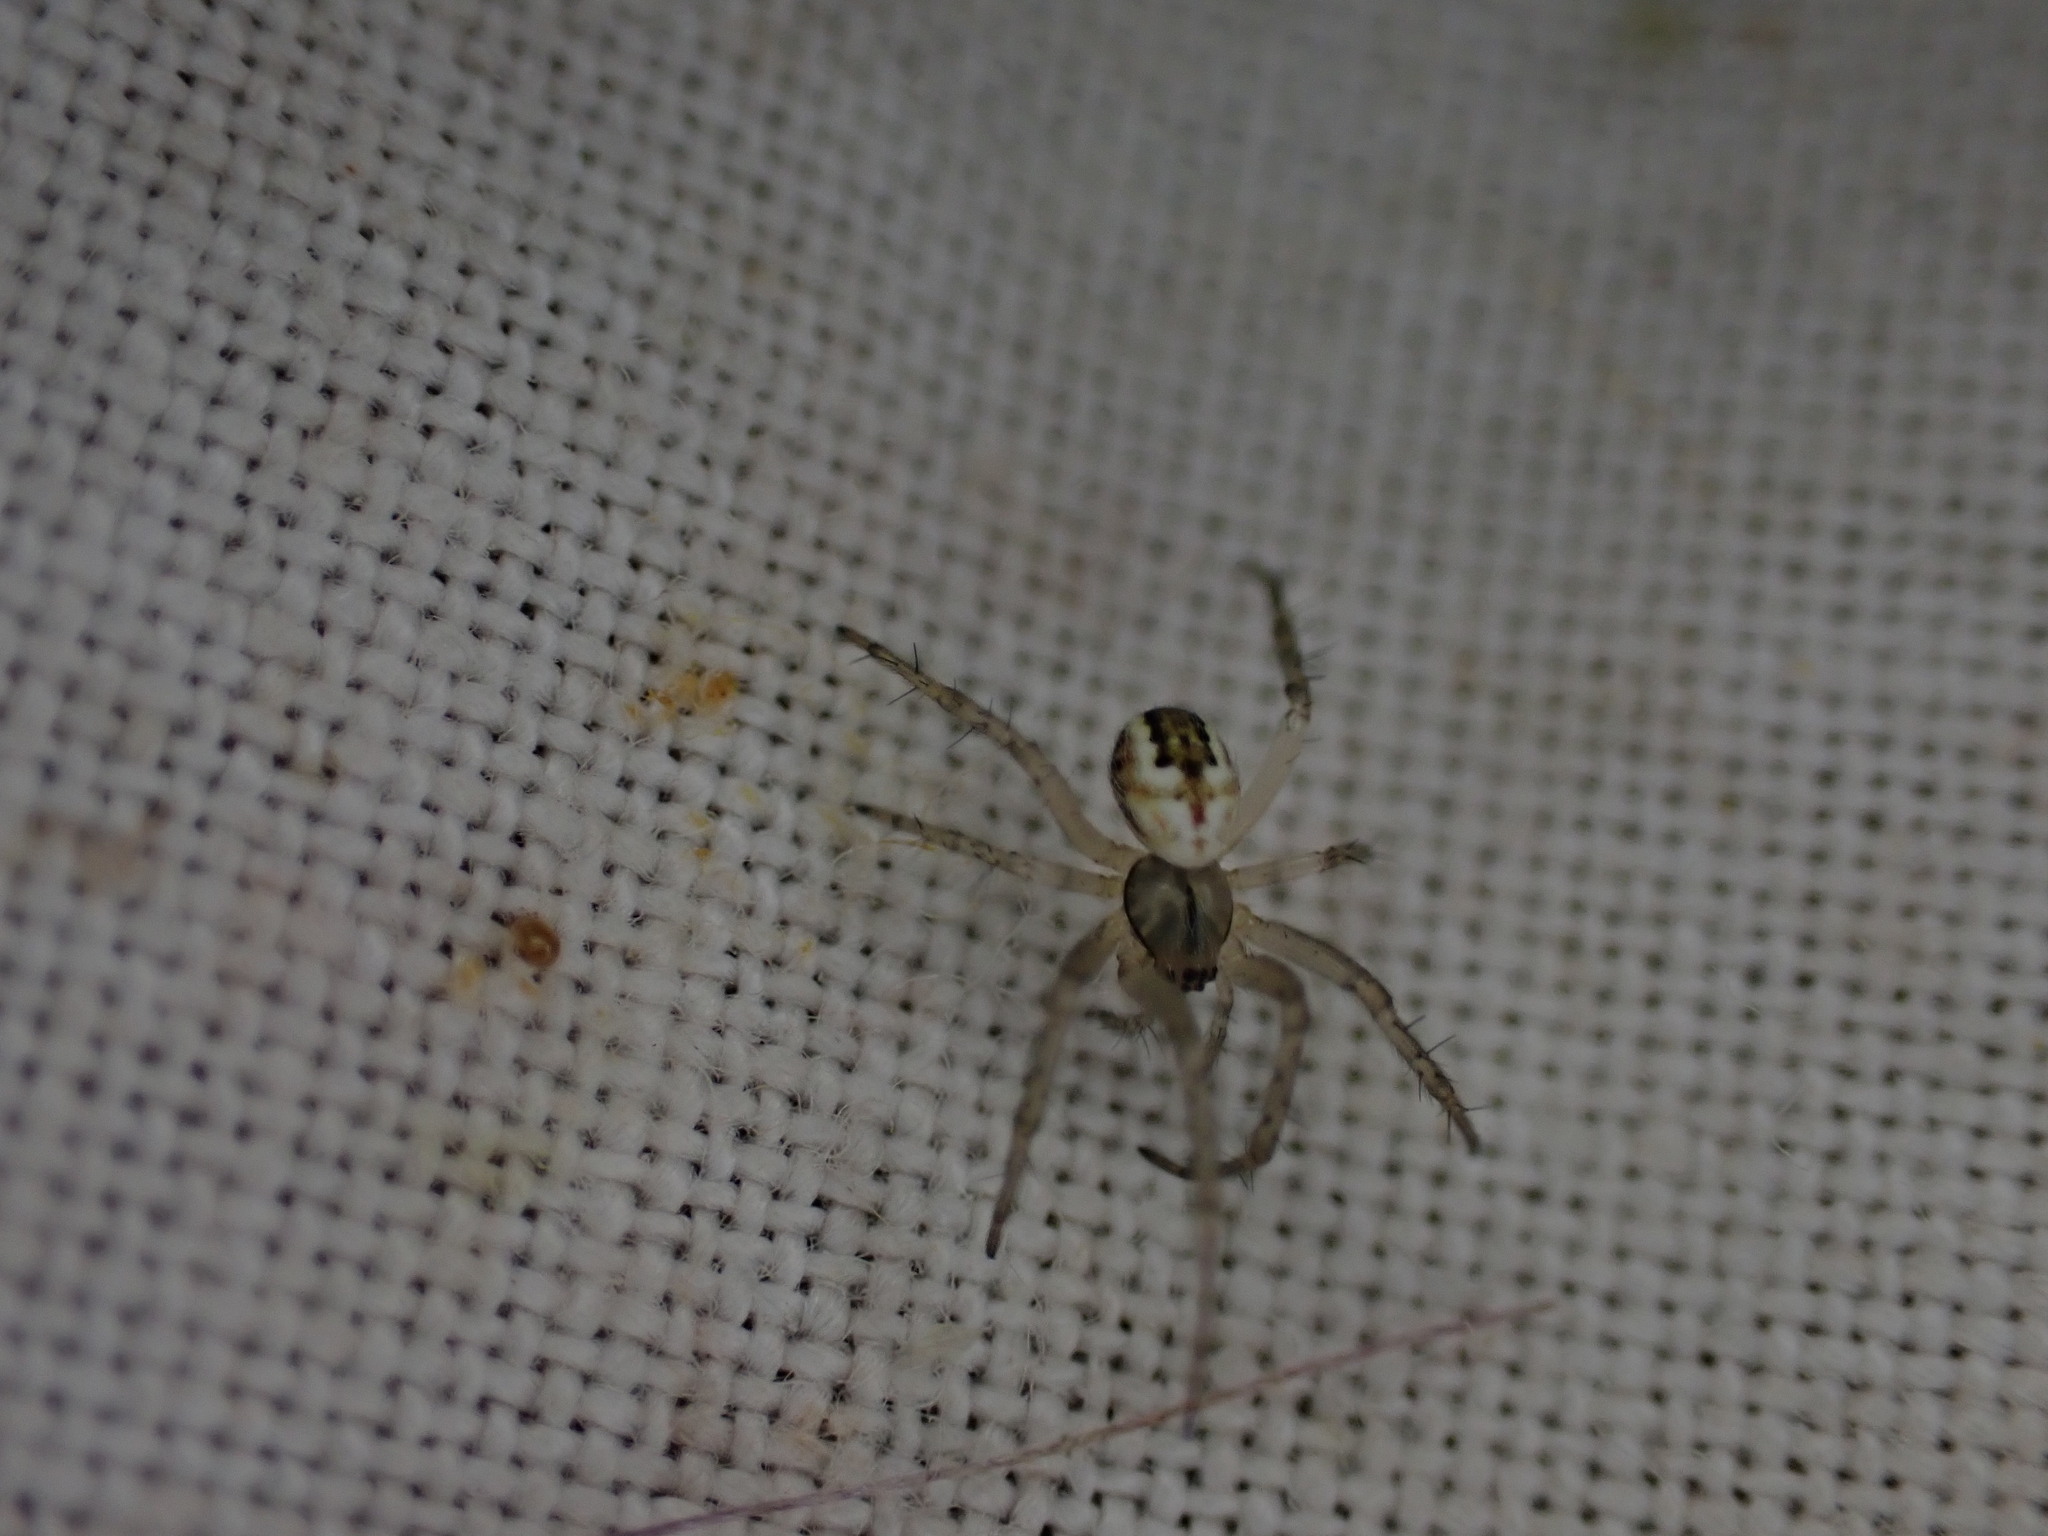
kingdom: Animalia
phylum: Arthropoda
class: Arachnida
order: Araneae
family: Araneidae
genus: Mangora
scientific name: Mangora acalypha
